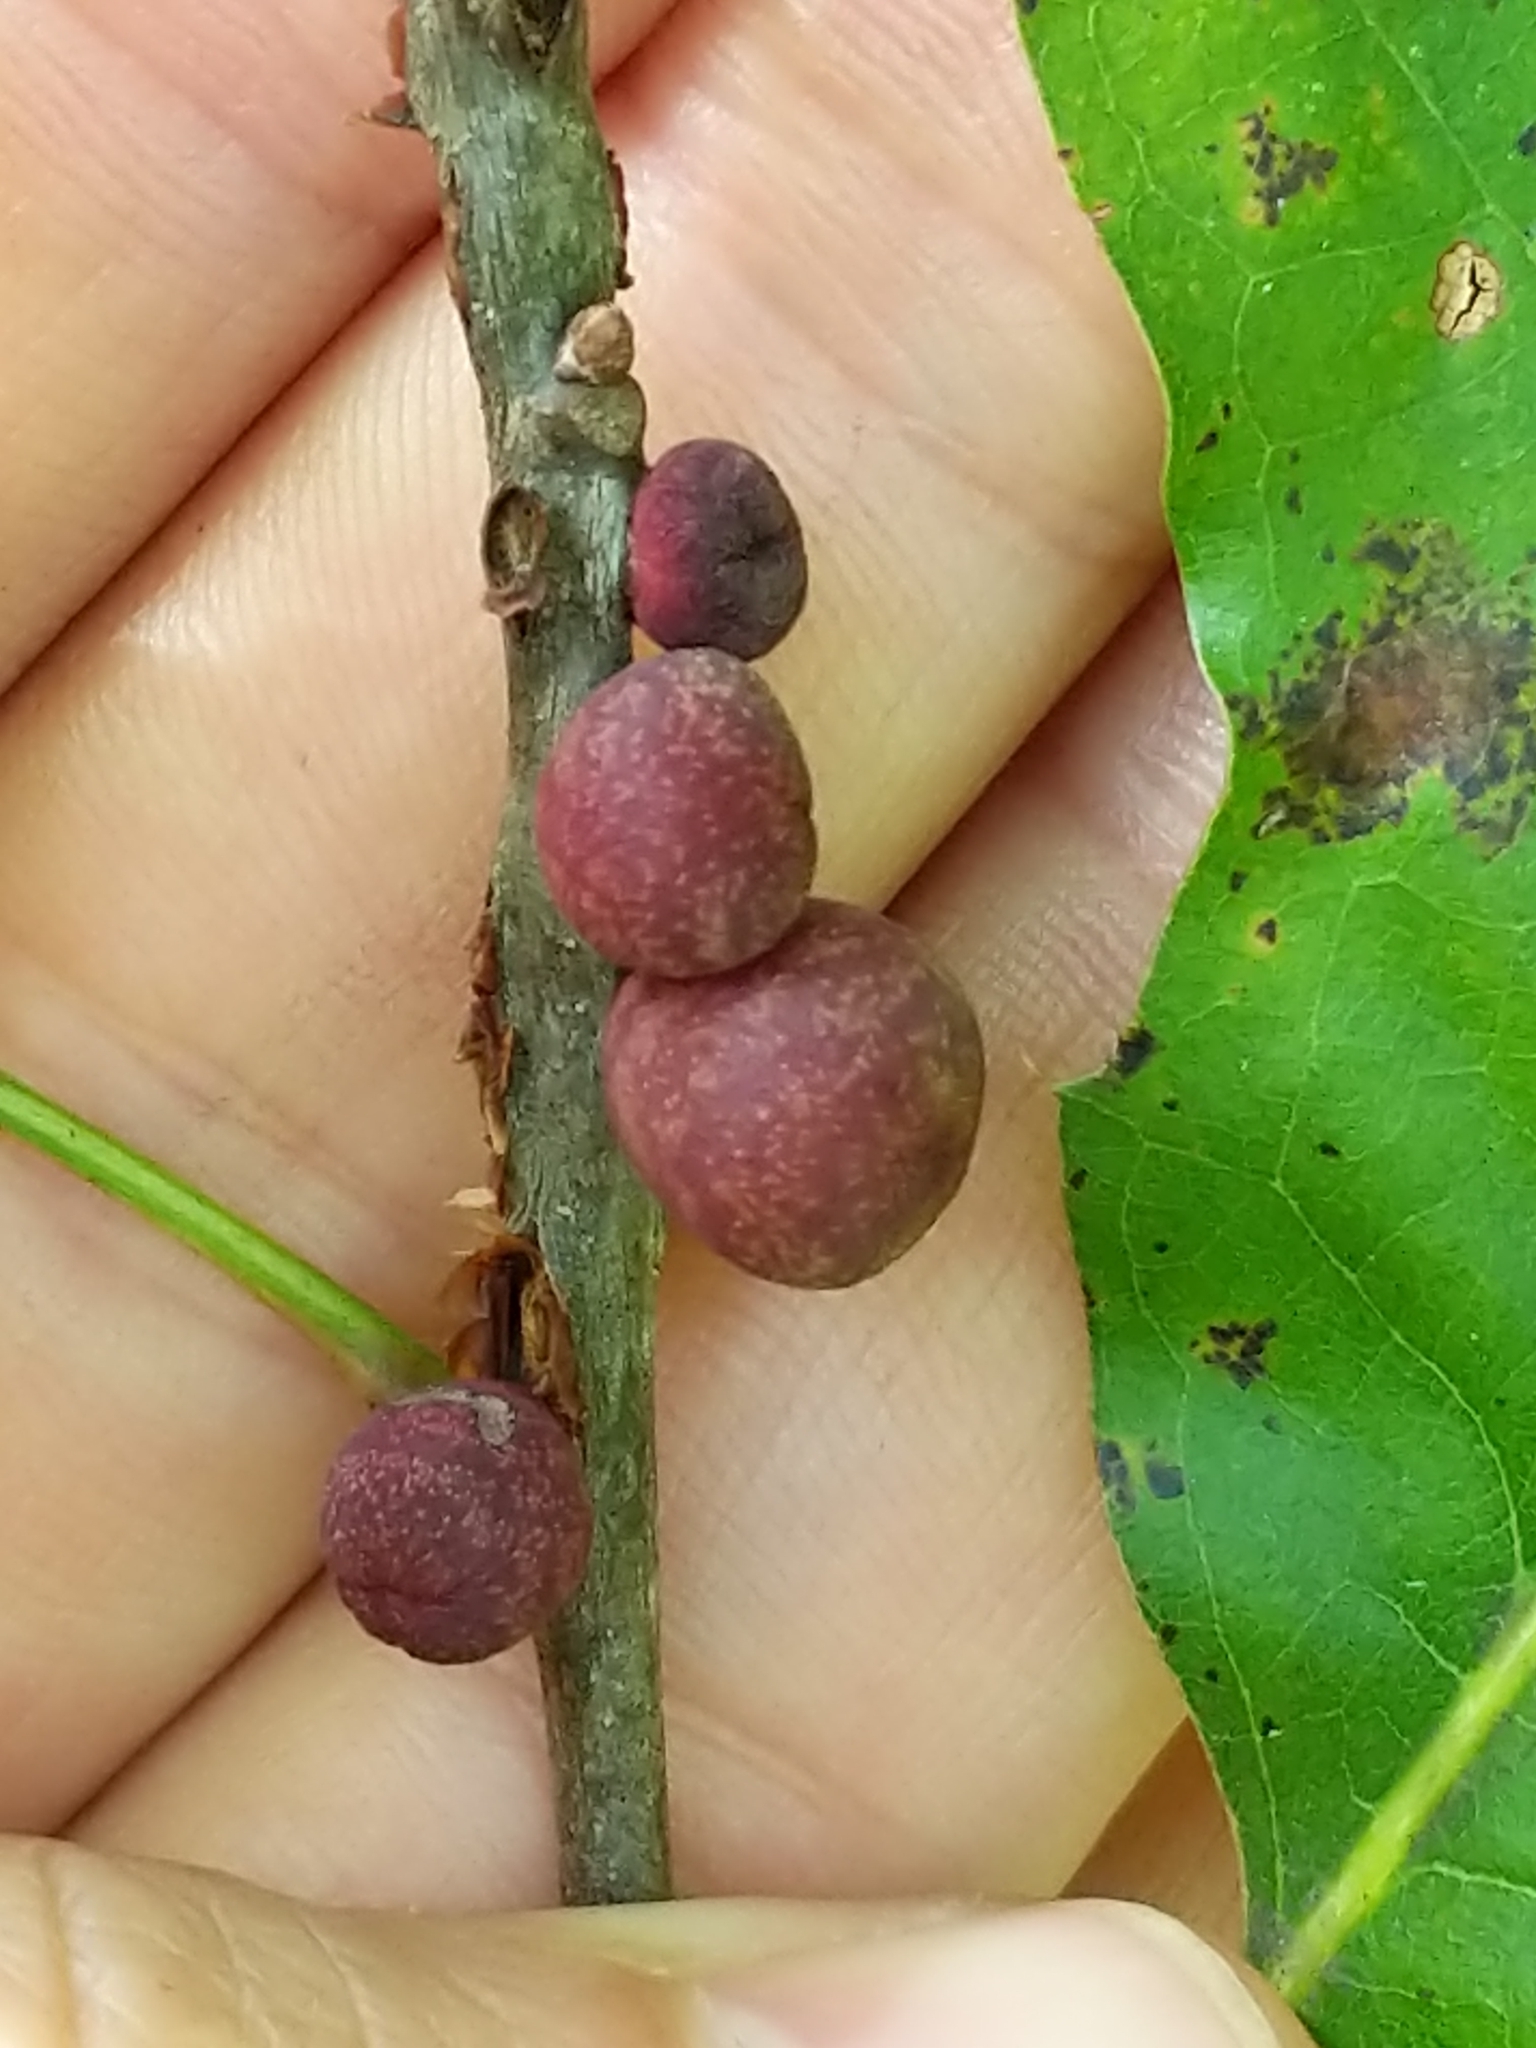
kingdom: Animalia
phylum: Arthropoda
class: Insecta
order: Hymenoptera
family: Cynipidae
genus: Kokkocynips
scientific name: Kokkocynips imbricariae
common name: Banded bullet gall wasp
